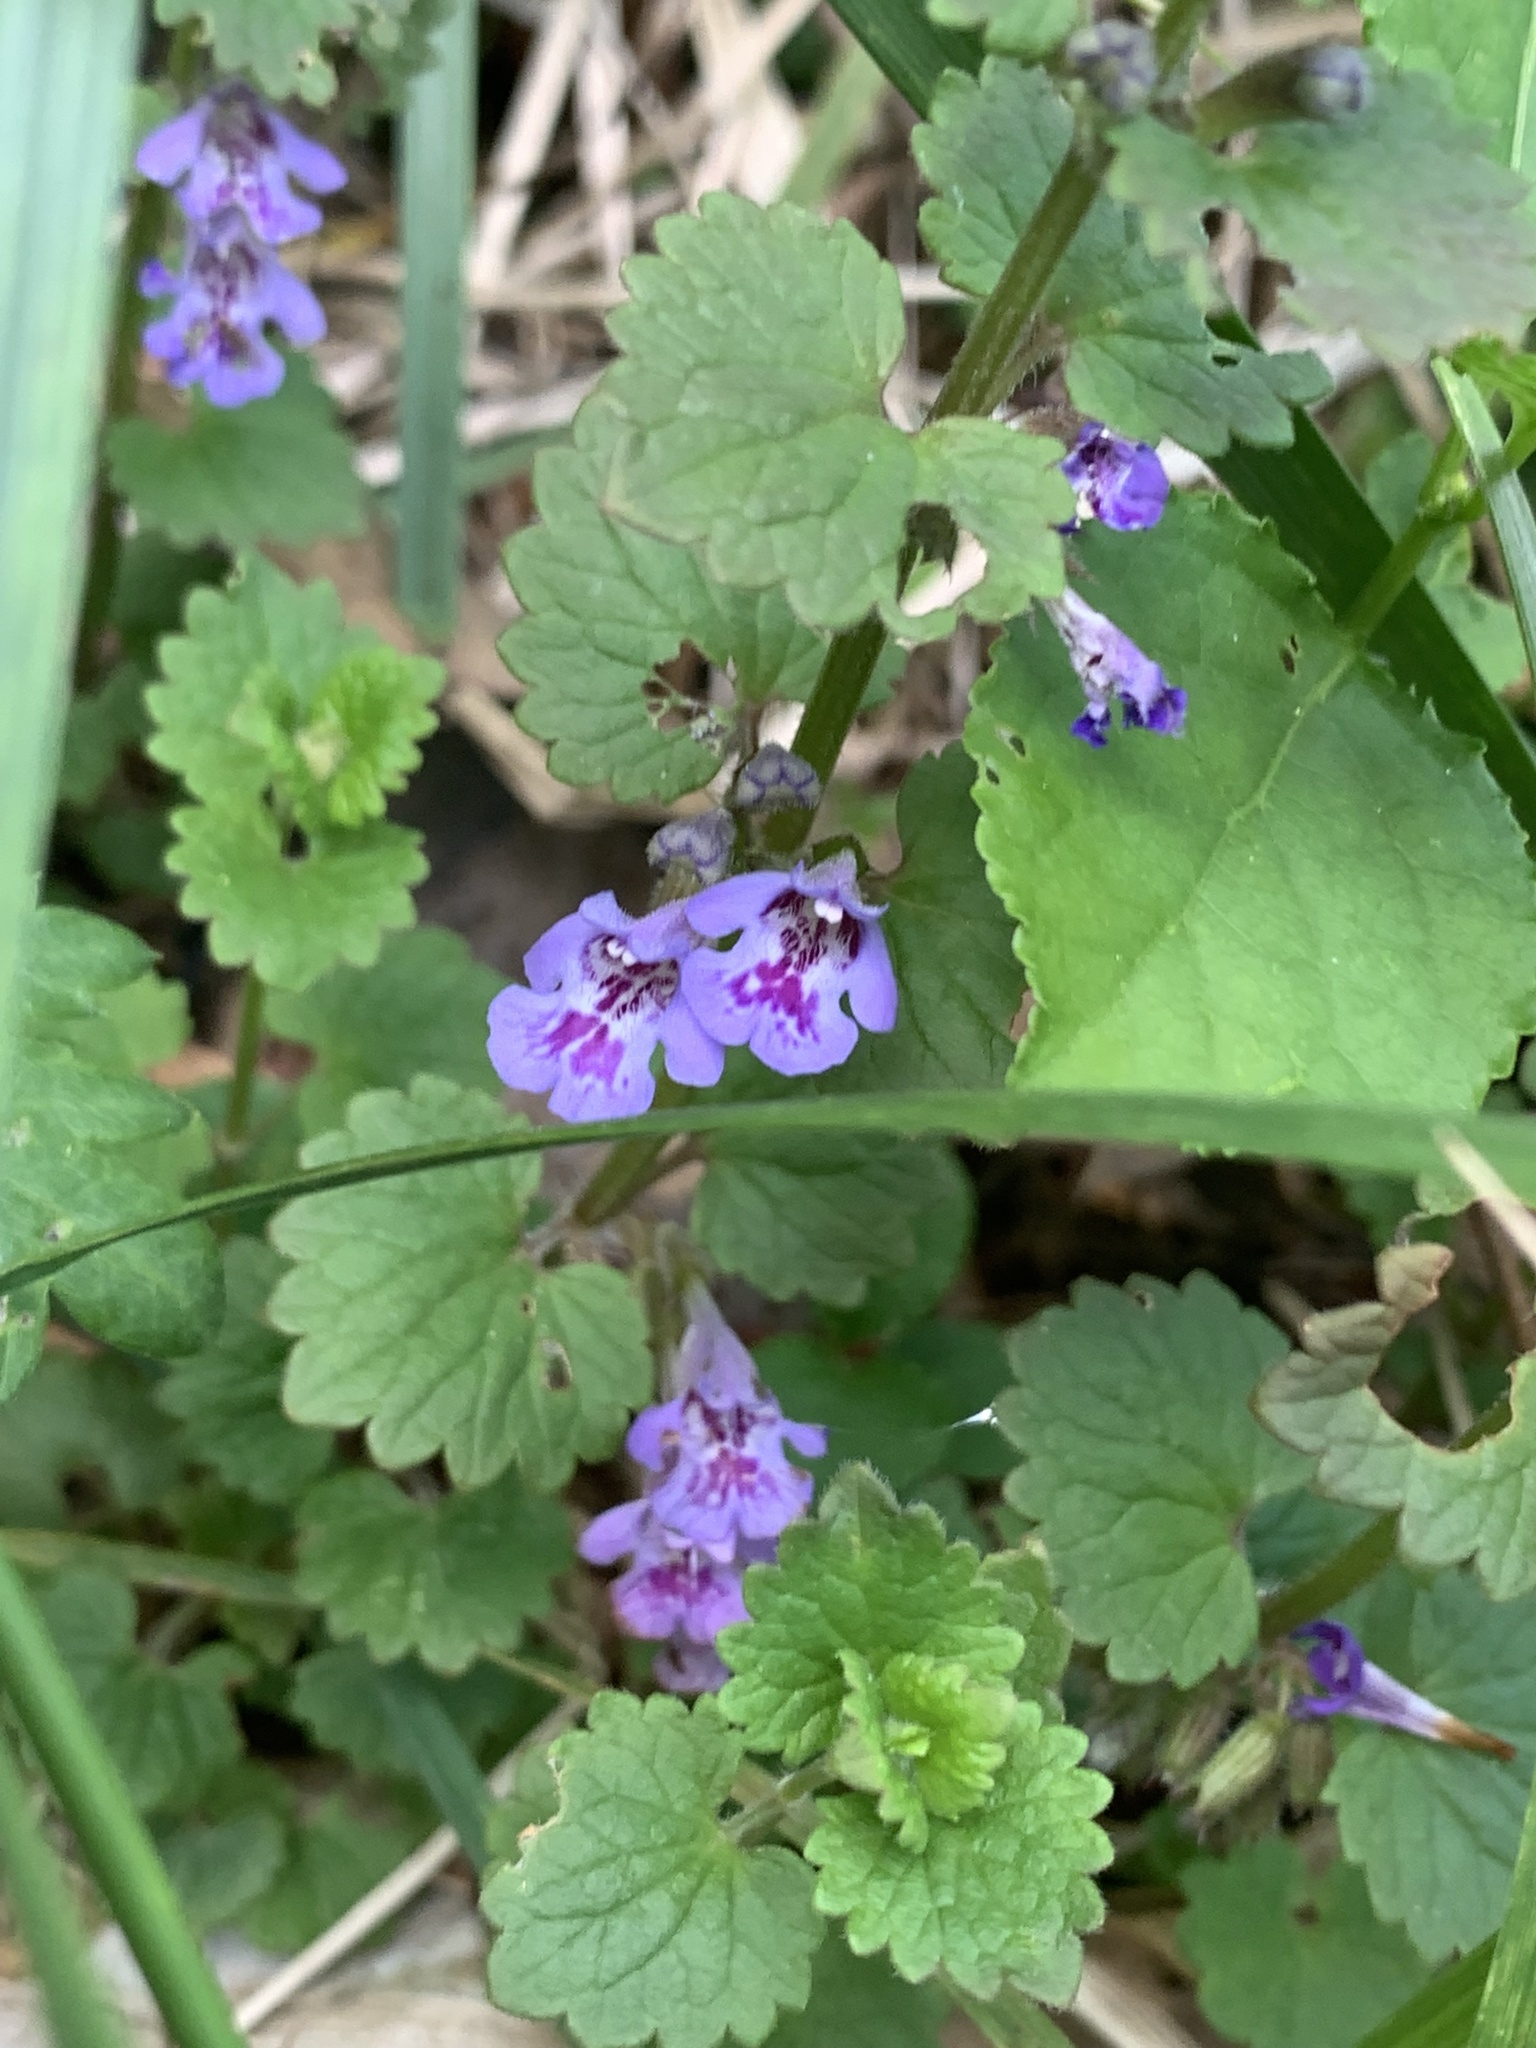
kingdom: Plantae
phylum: Tracheophyta
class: Magnoliopsida
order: Lamiales
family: Lamiaceae
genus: Glechoma
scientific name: Glechoma hederacea
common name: Ground ivy
